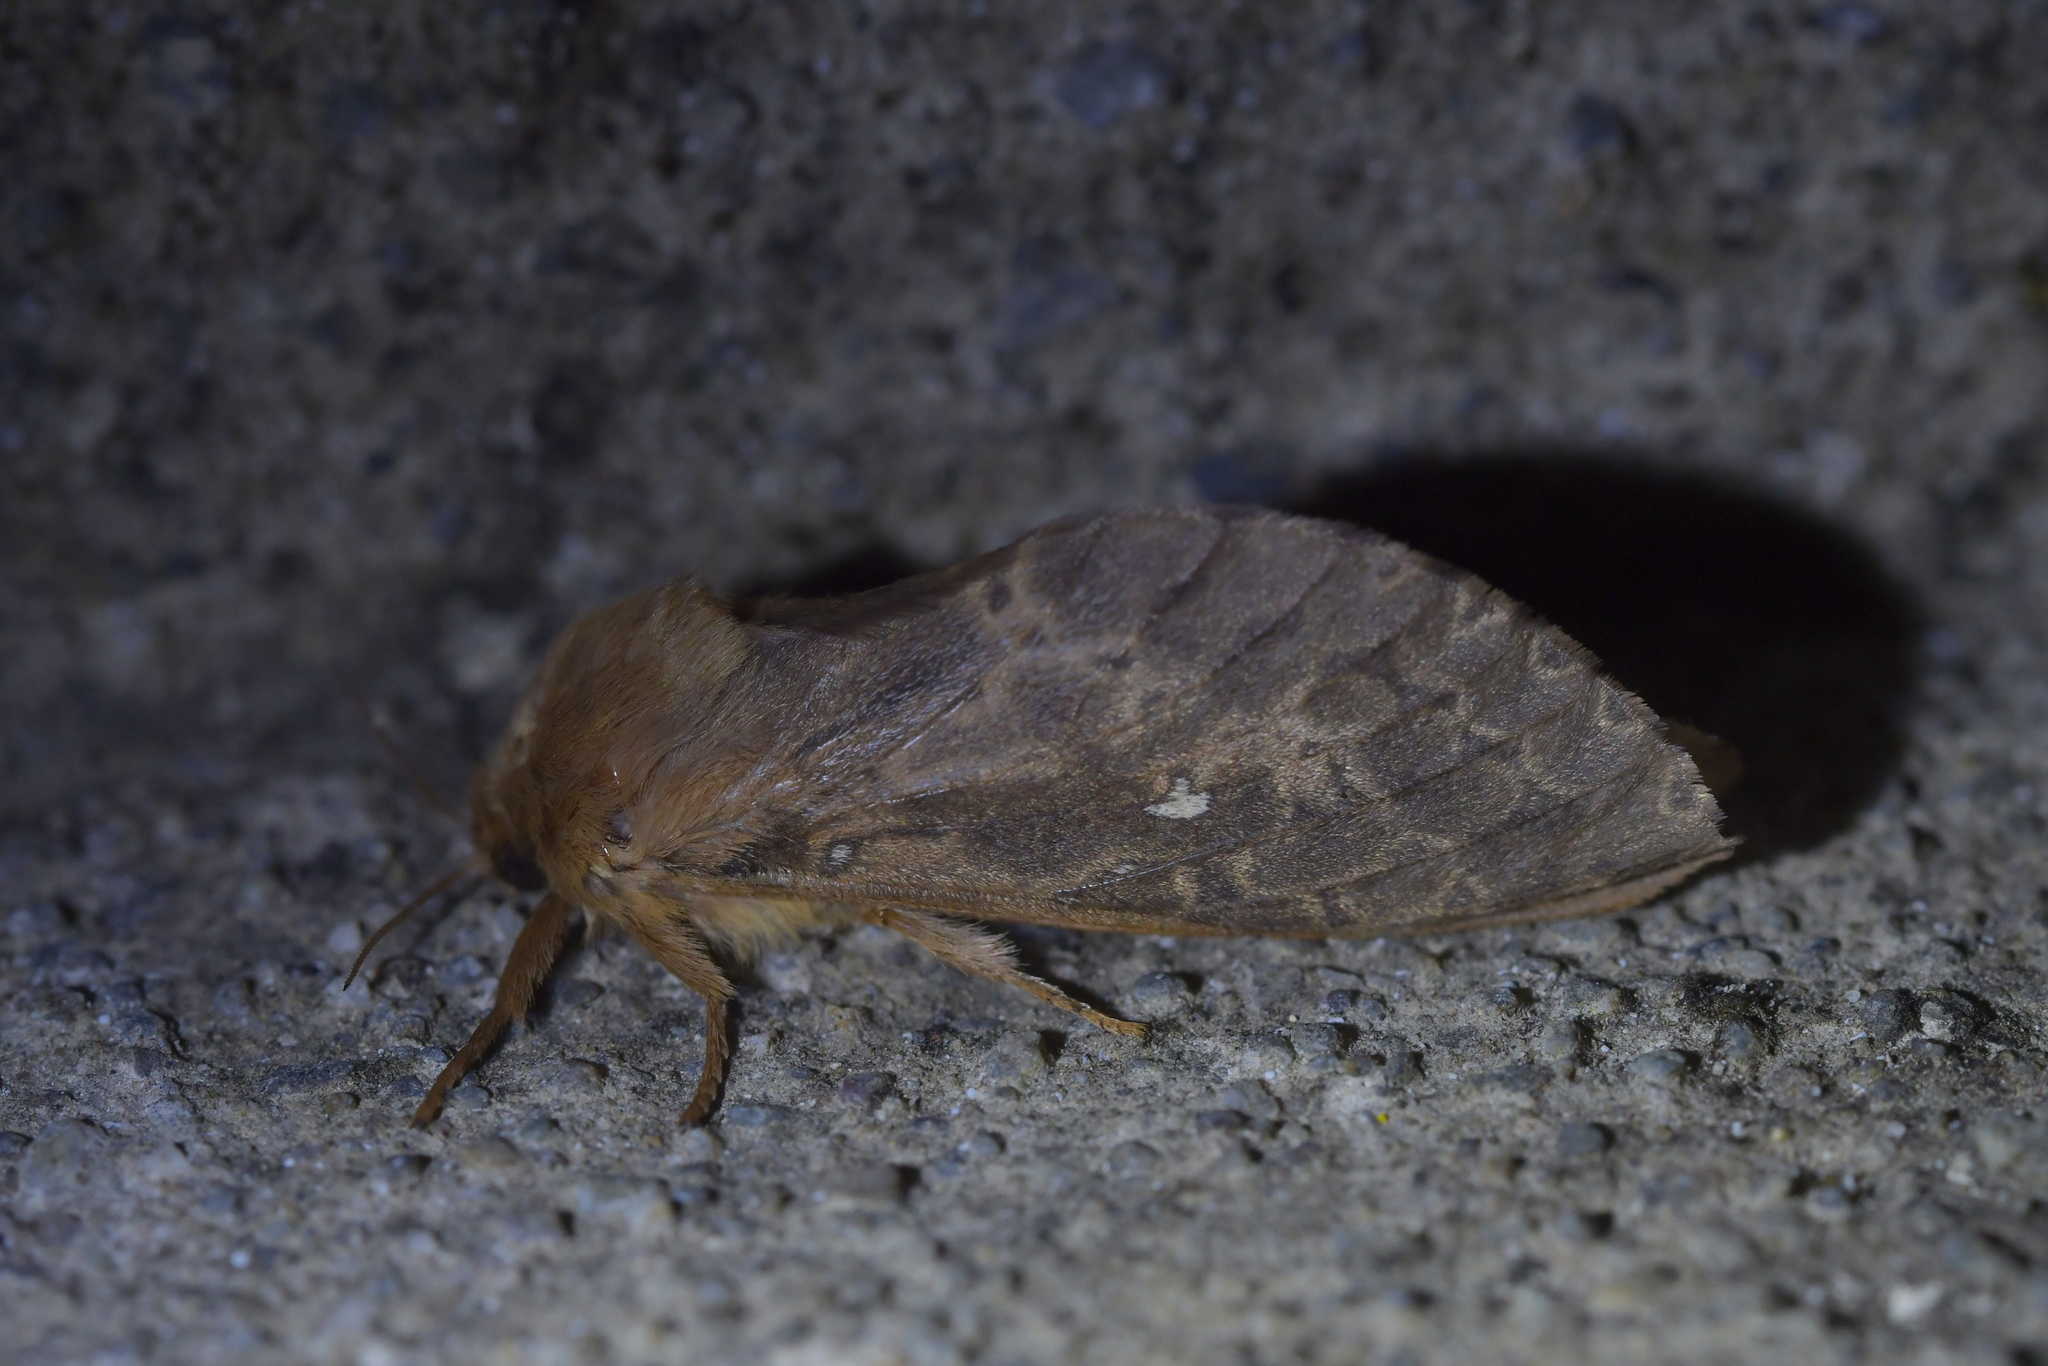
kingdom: Animalia
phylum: Arthropoda
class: Insecta
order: Lepidoptera
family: Hepialidae
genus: Wiseana
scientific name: Wiseana cervinata
